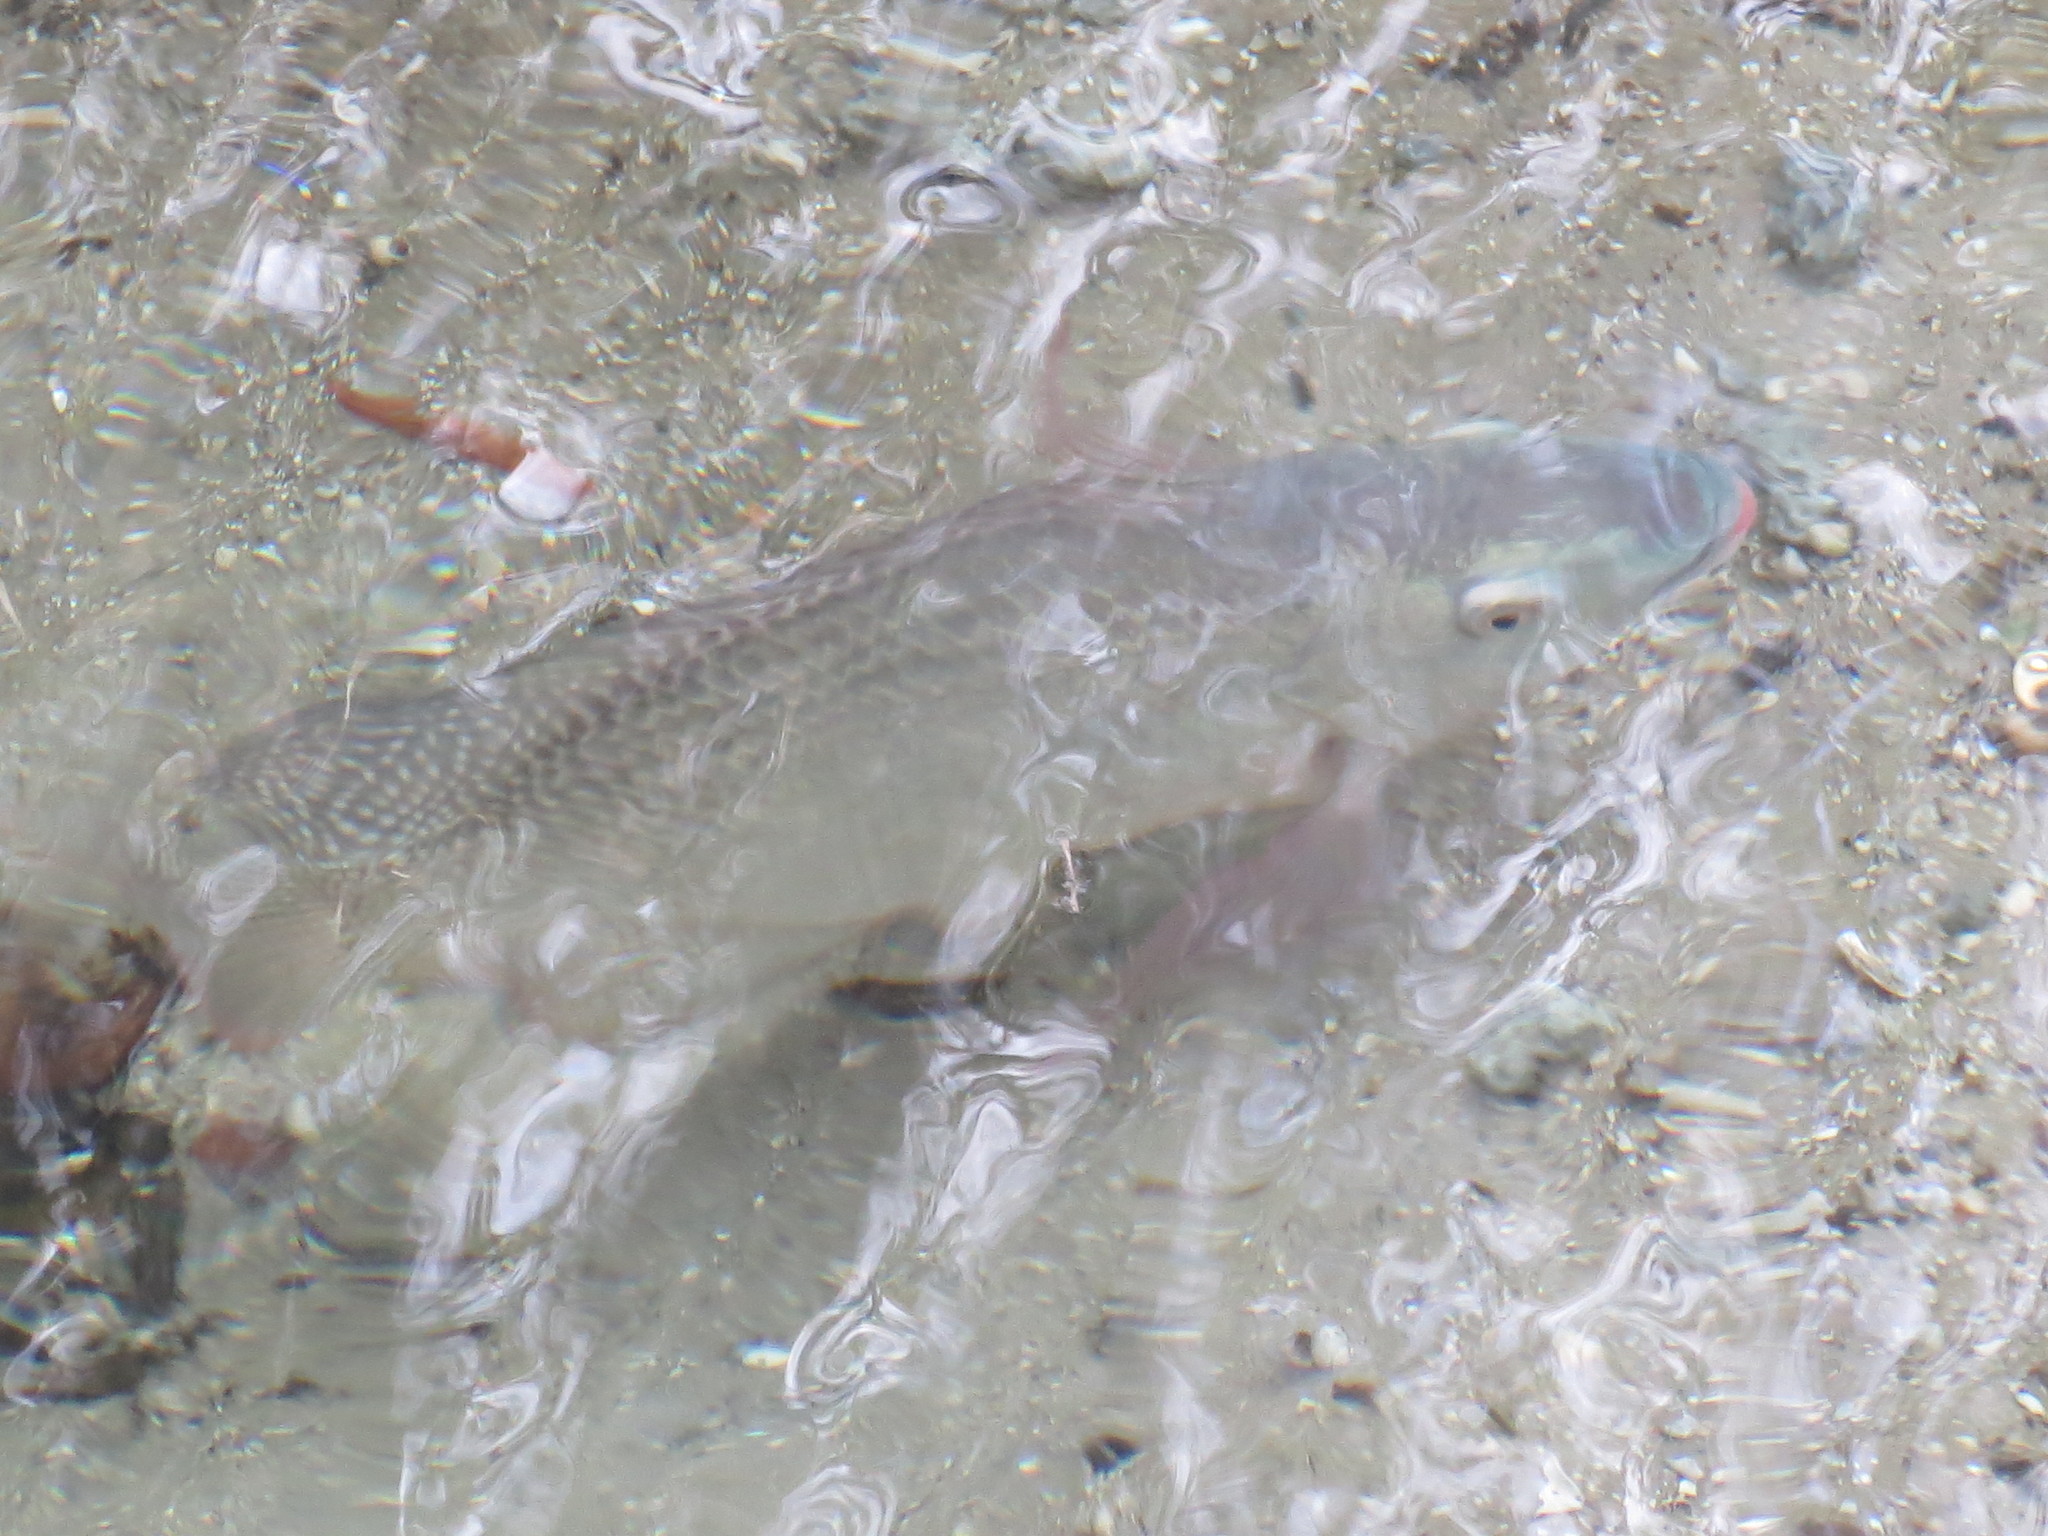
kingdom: Animalia
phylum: Chordata
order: Perciformes
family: Cichlidae
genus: Oreochromis
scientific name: Oreochromis aureus
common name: Blue tilapia
